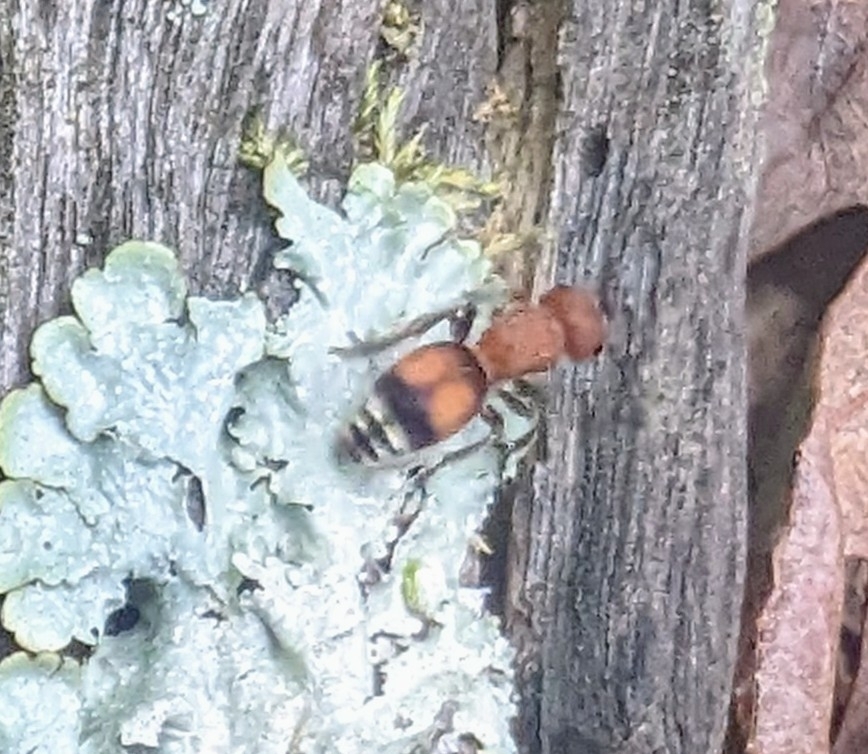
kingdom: Animalia
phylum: Arthropoda
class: Insecta
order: Hymenoptera
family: Mutillidae
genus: Pseudomethoca
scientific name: Pseudomethoca
